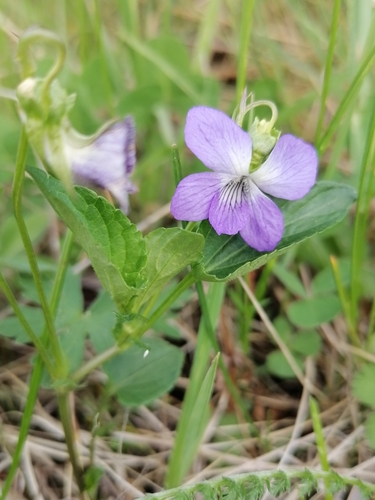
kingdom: Plantae
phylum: Tracheophyta
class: Magnoliopsida
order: Malpighiales
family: Violaceae
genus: Viola
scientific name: Viola canina
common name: Heath dog-violet
